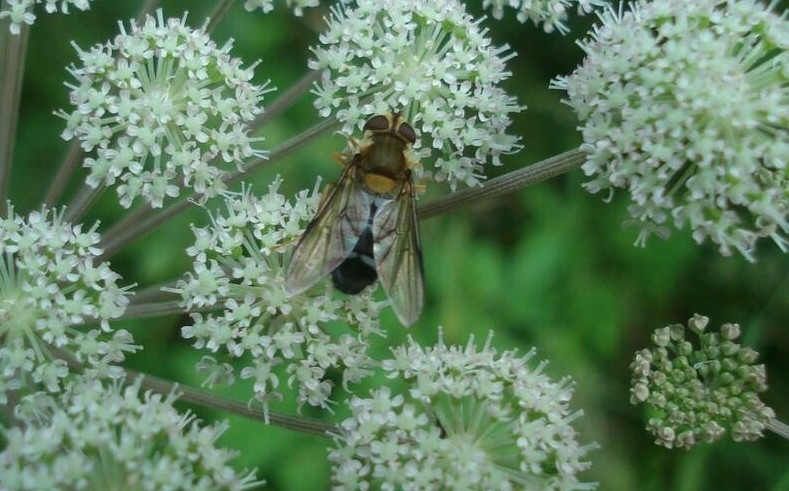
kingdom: Animalia
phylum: Arthropoda
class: Insecta
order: Diptera
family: Syrphidae
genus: Leucozona
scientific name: Leucozona glaucia
